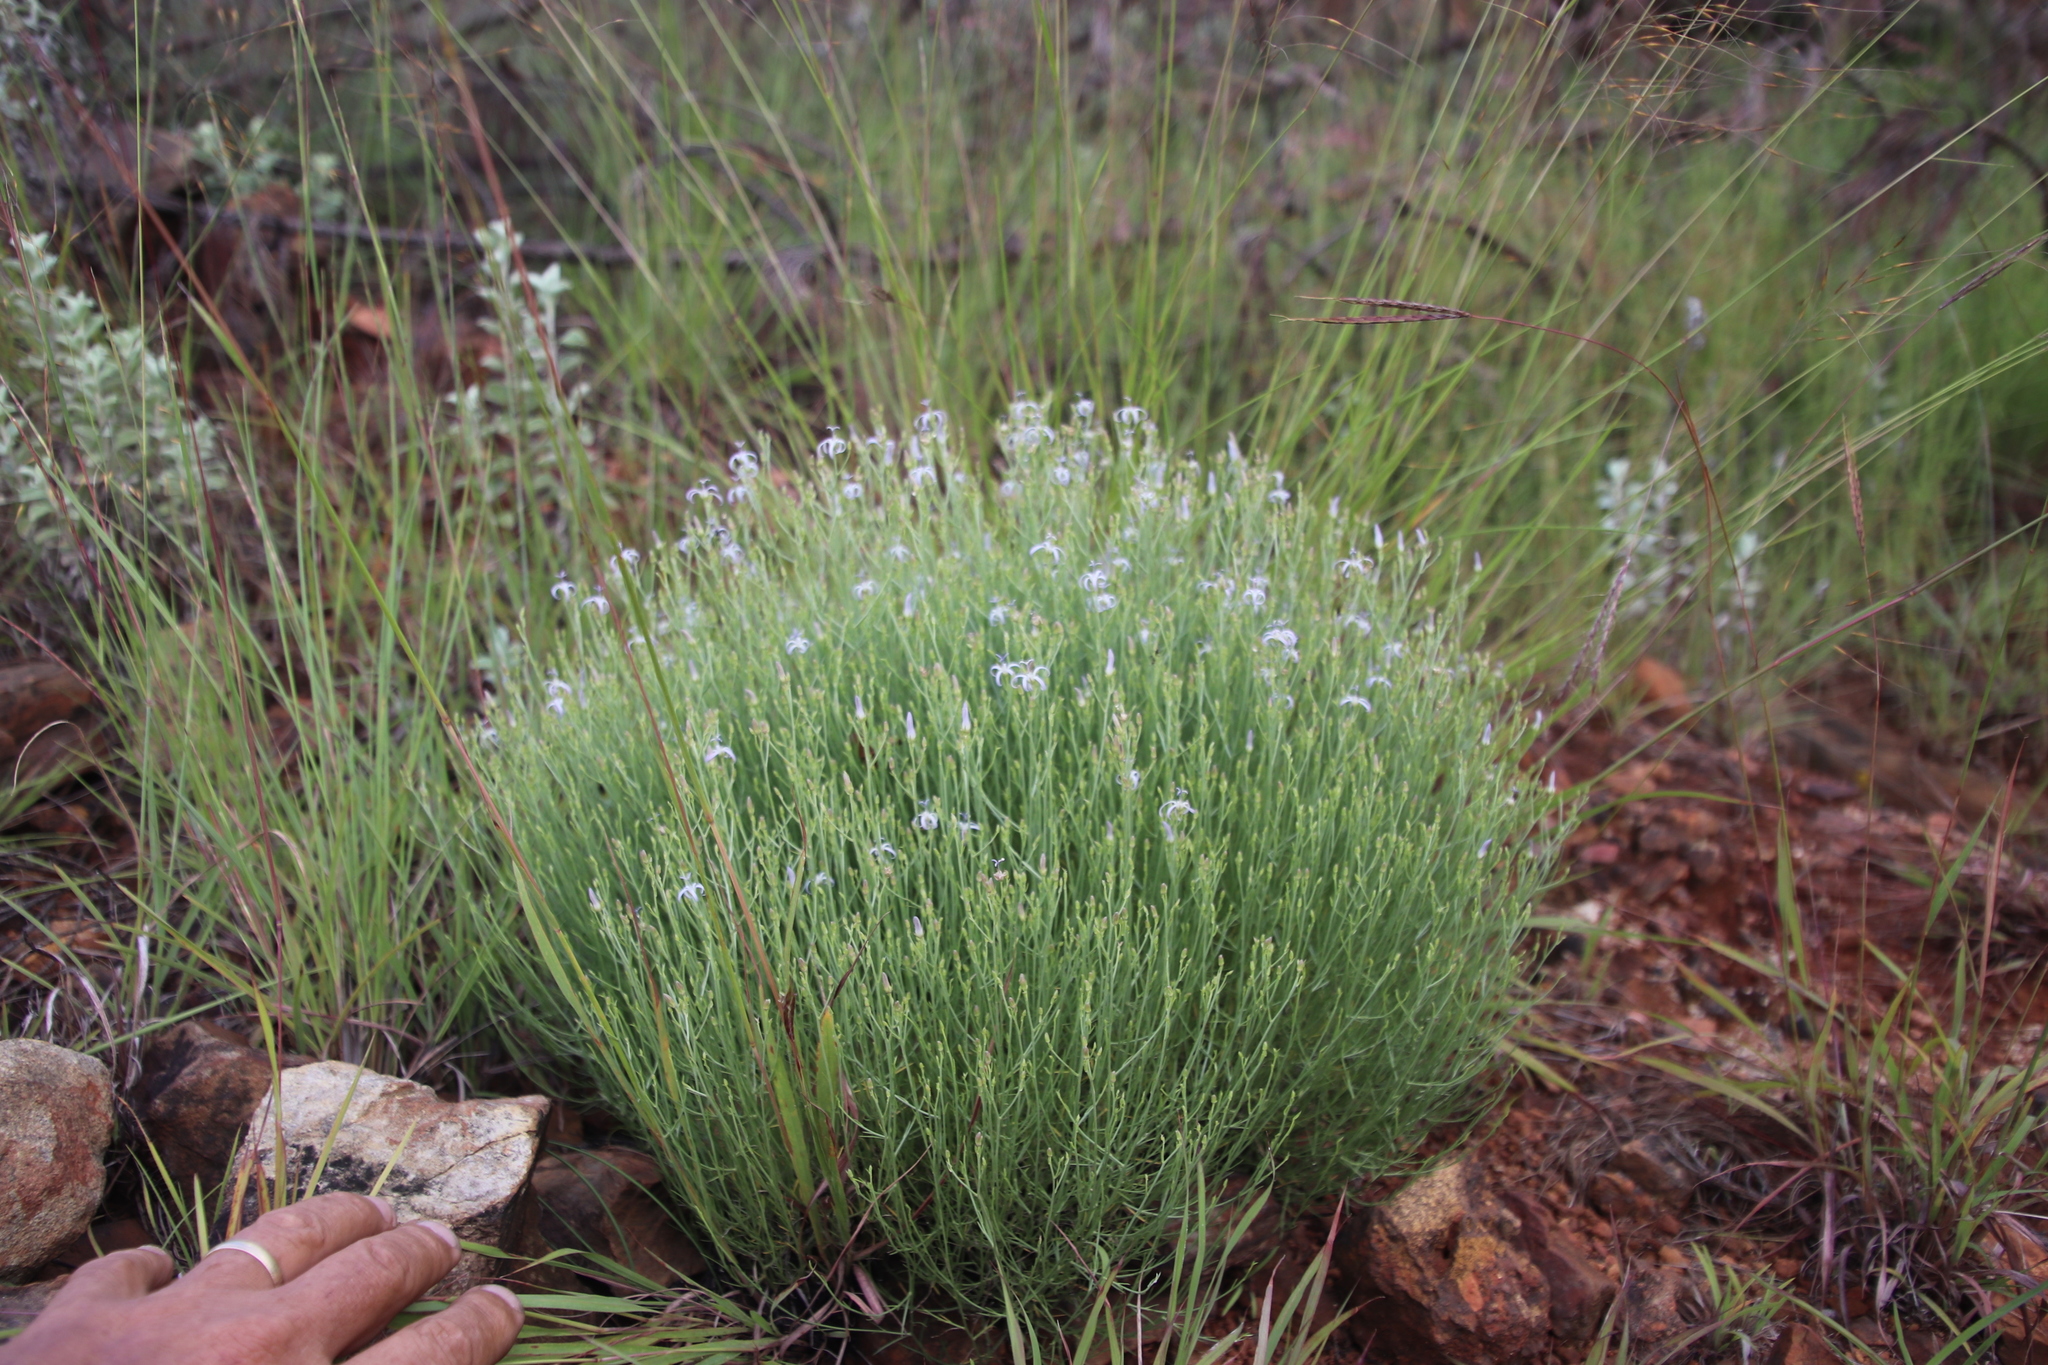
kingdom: Plantae
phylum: Tracheophyta
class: Magnoliopsida
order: Asterales
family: Campanulaceae
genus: Wahlenbergia
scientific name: Wahlenbergia magaliesbergensis
